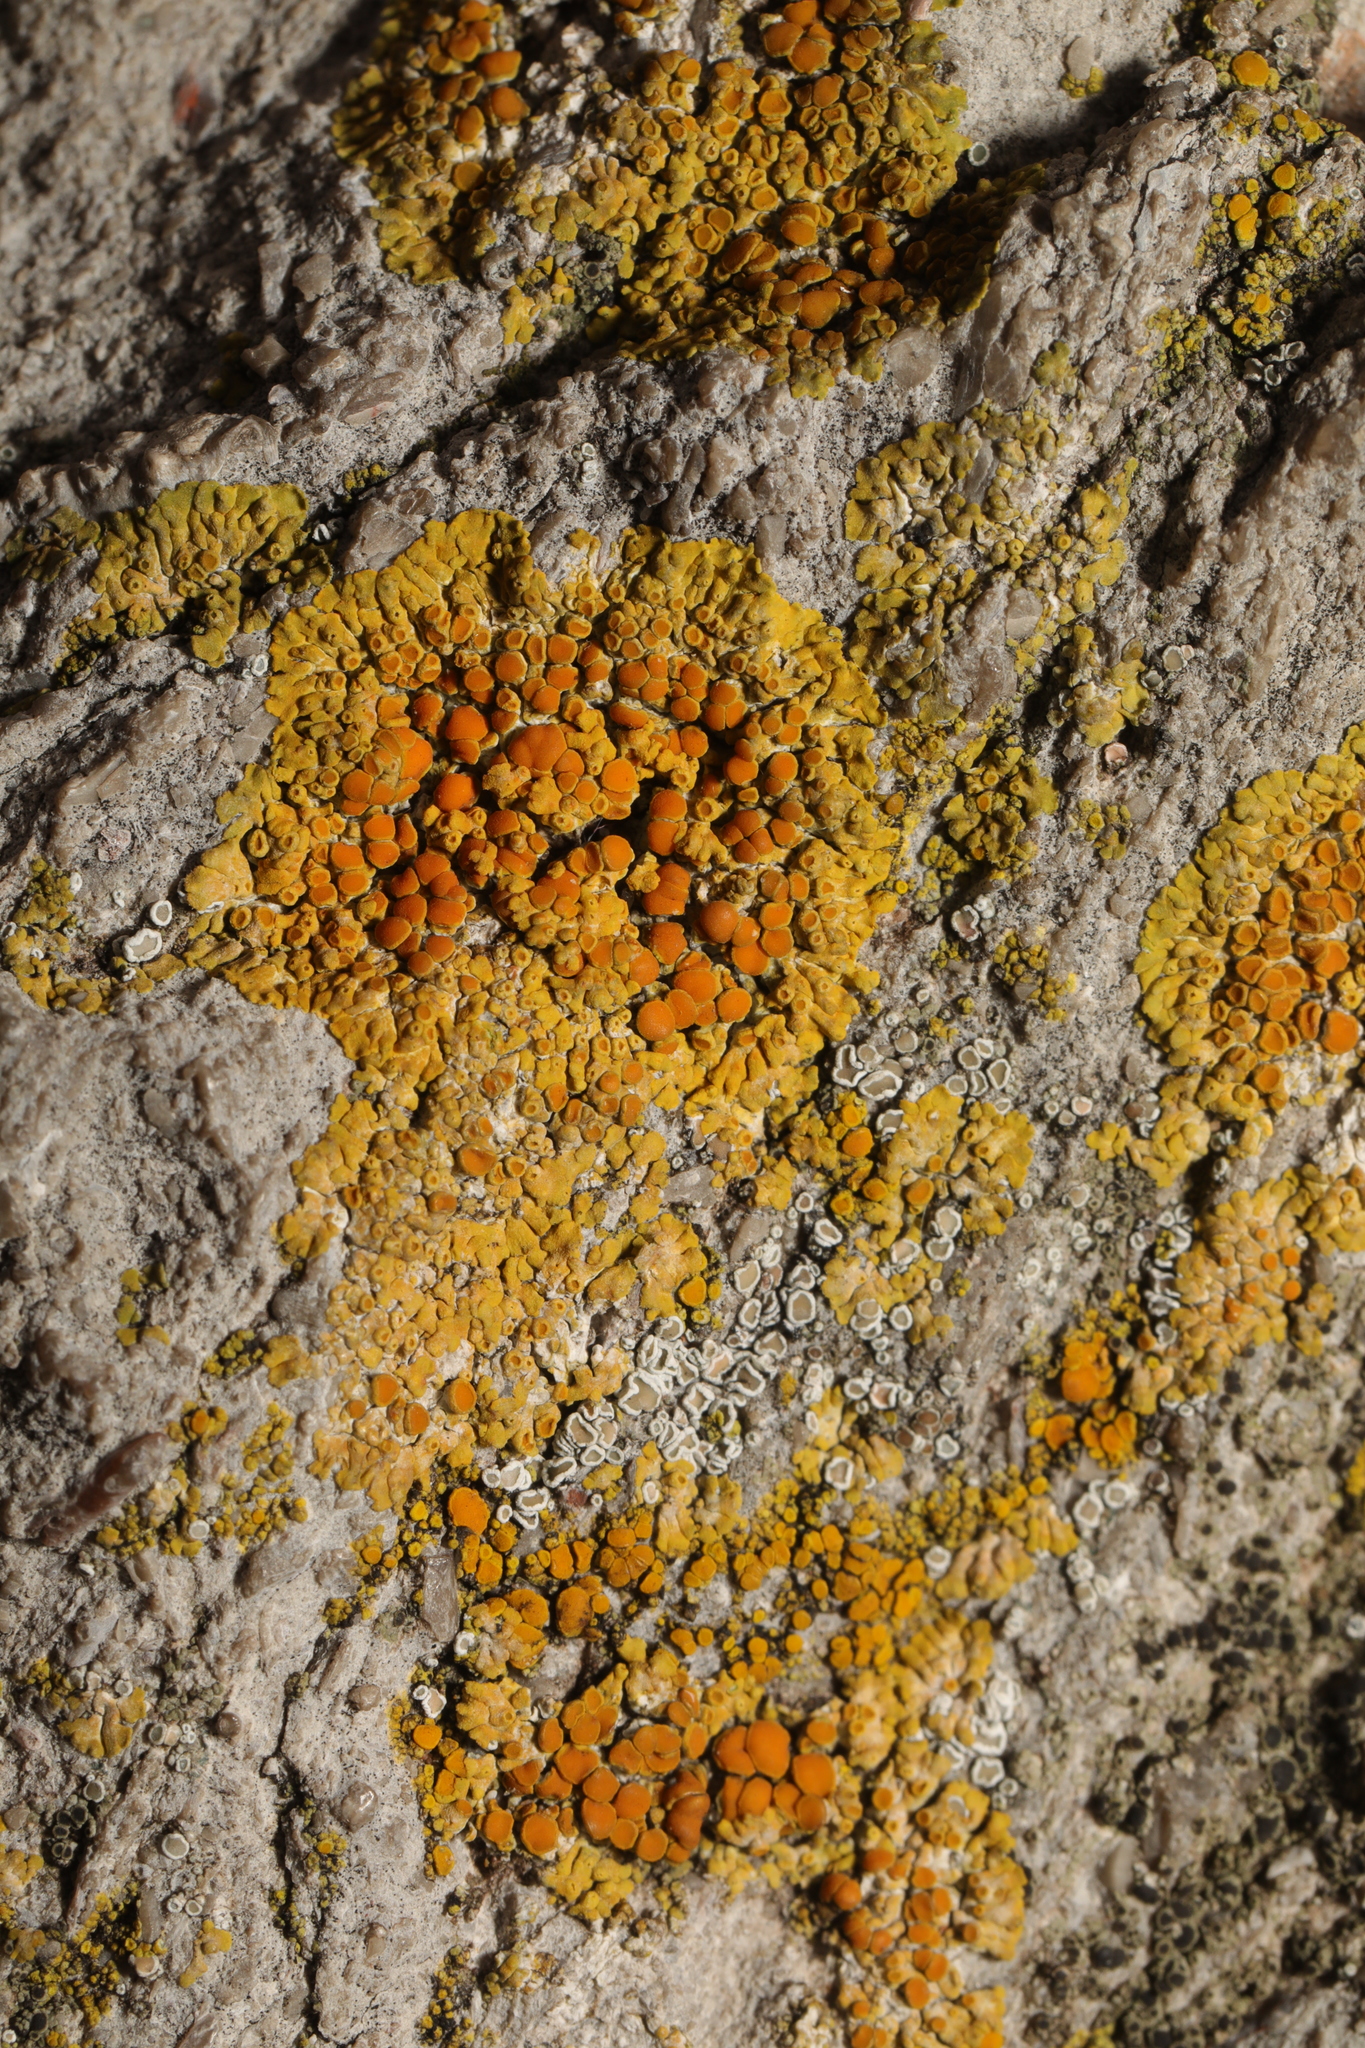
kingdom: Fungi
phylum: Ascomycota
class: Lecanoromycetes
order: Teloschistales
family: Teloschistaceae
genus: Calogaya
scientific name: Calogaya saxicola
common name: Rock jewel lichen
